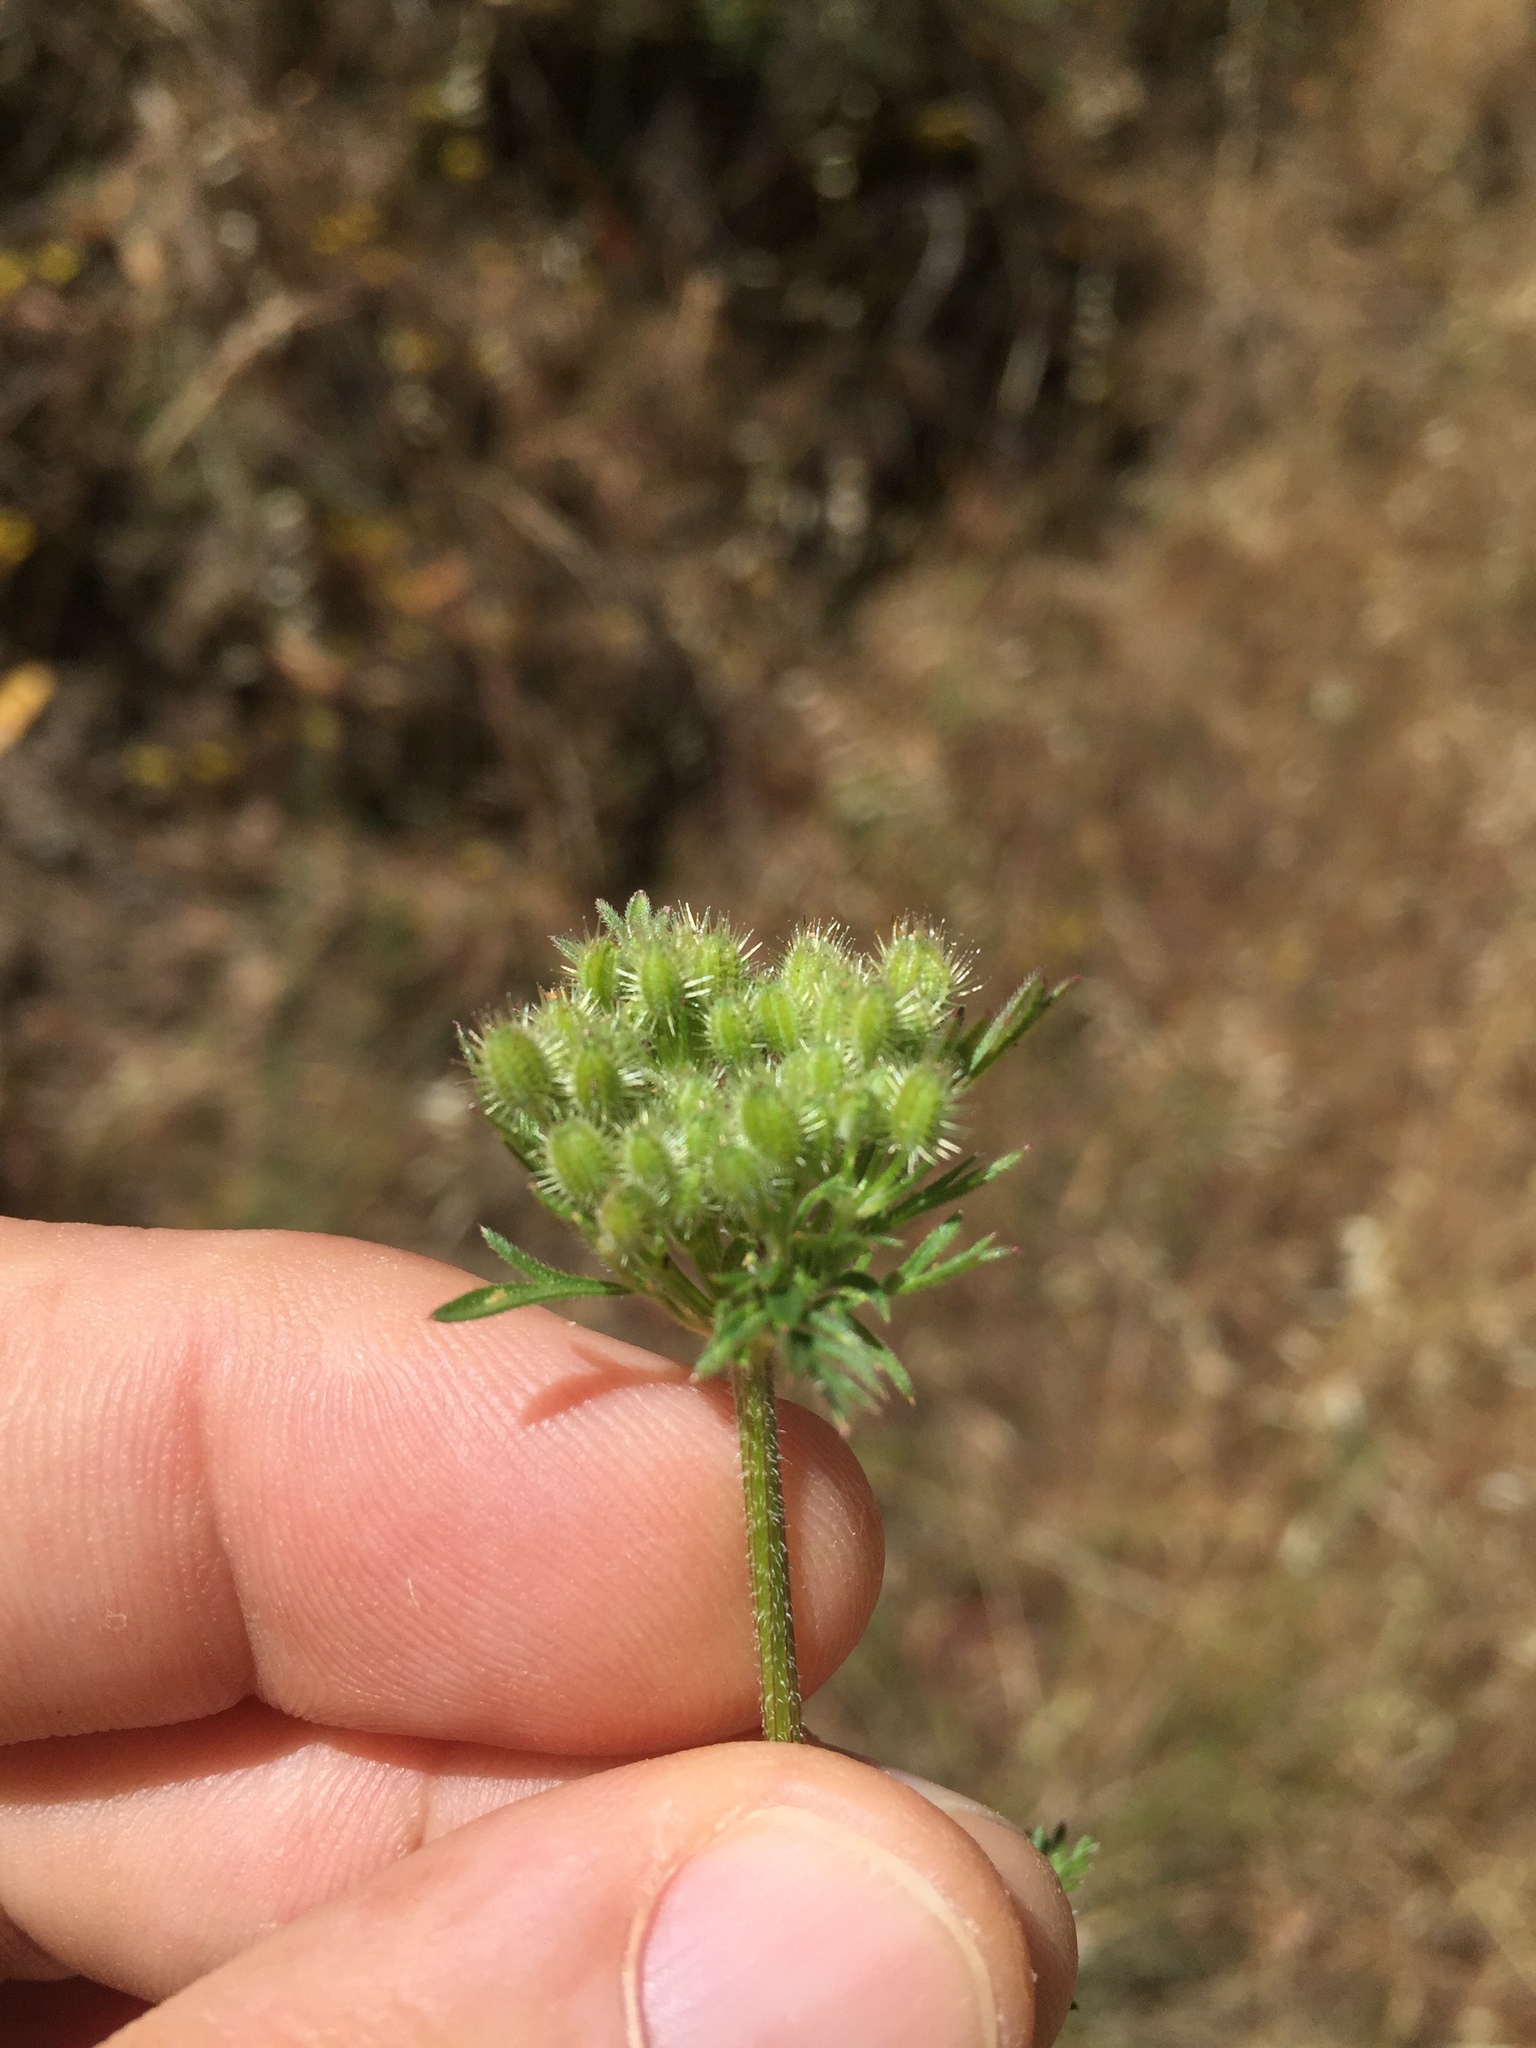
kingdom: Plantae
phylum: Tracheophyta
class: Magnoliopsida
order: Apiales
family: Apiaceae
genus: Daucus
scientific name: Daucus pusillus
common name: Southwest wild carrot
